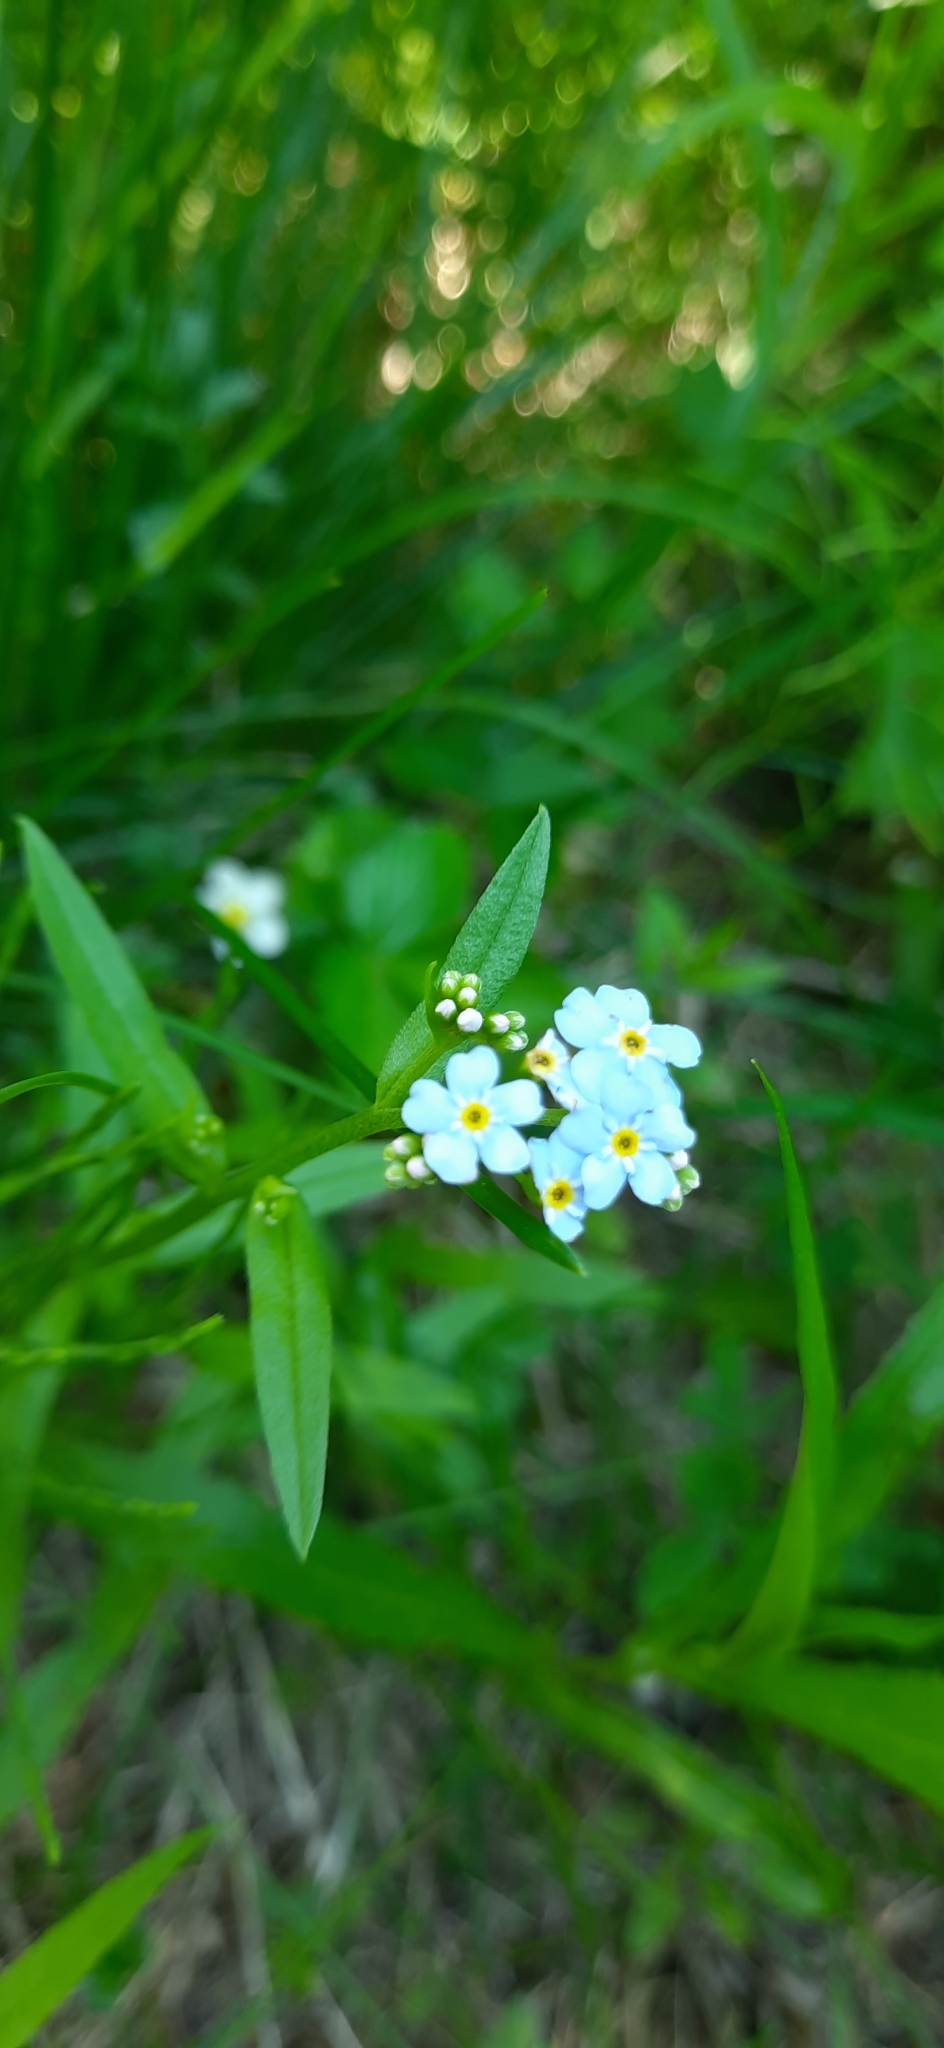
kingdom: Plantae
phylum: Tracheophyta
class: Magnoliopsida
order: Boraginales
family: Boraginaceae
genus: Myosotis
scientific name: Myosotis scorpioides
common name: Water forget-me-not
